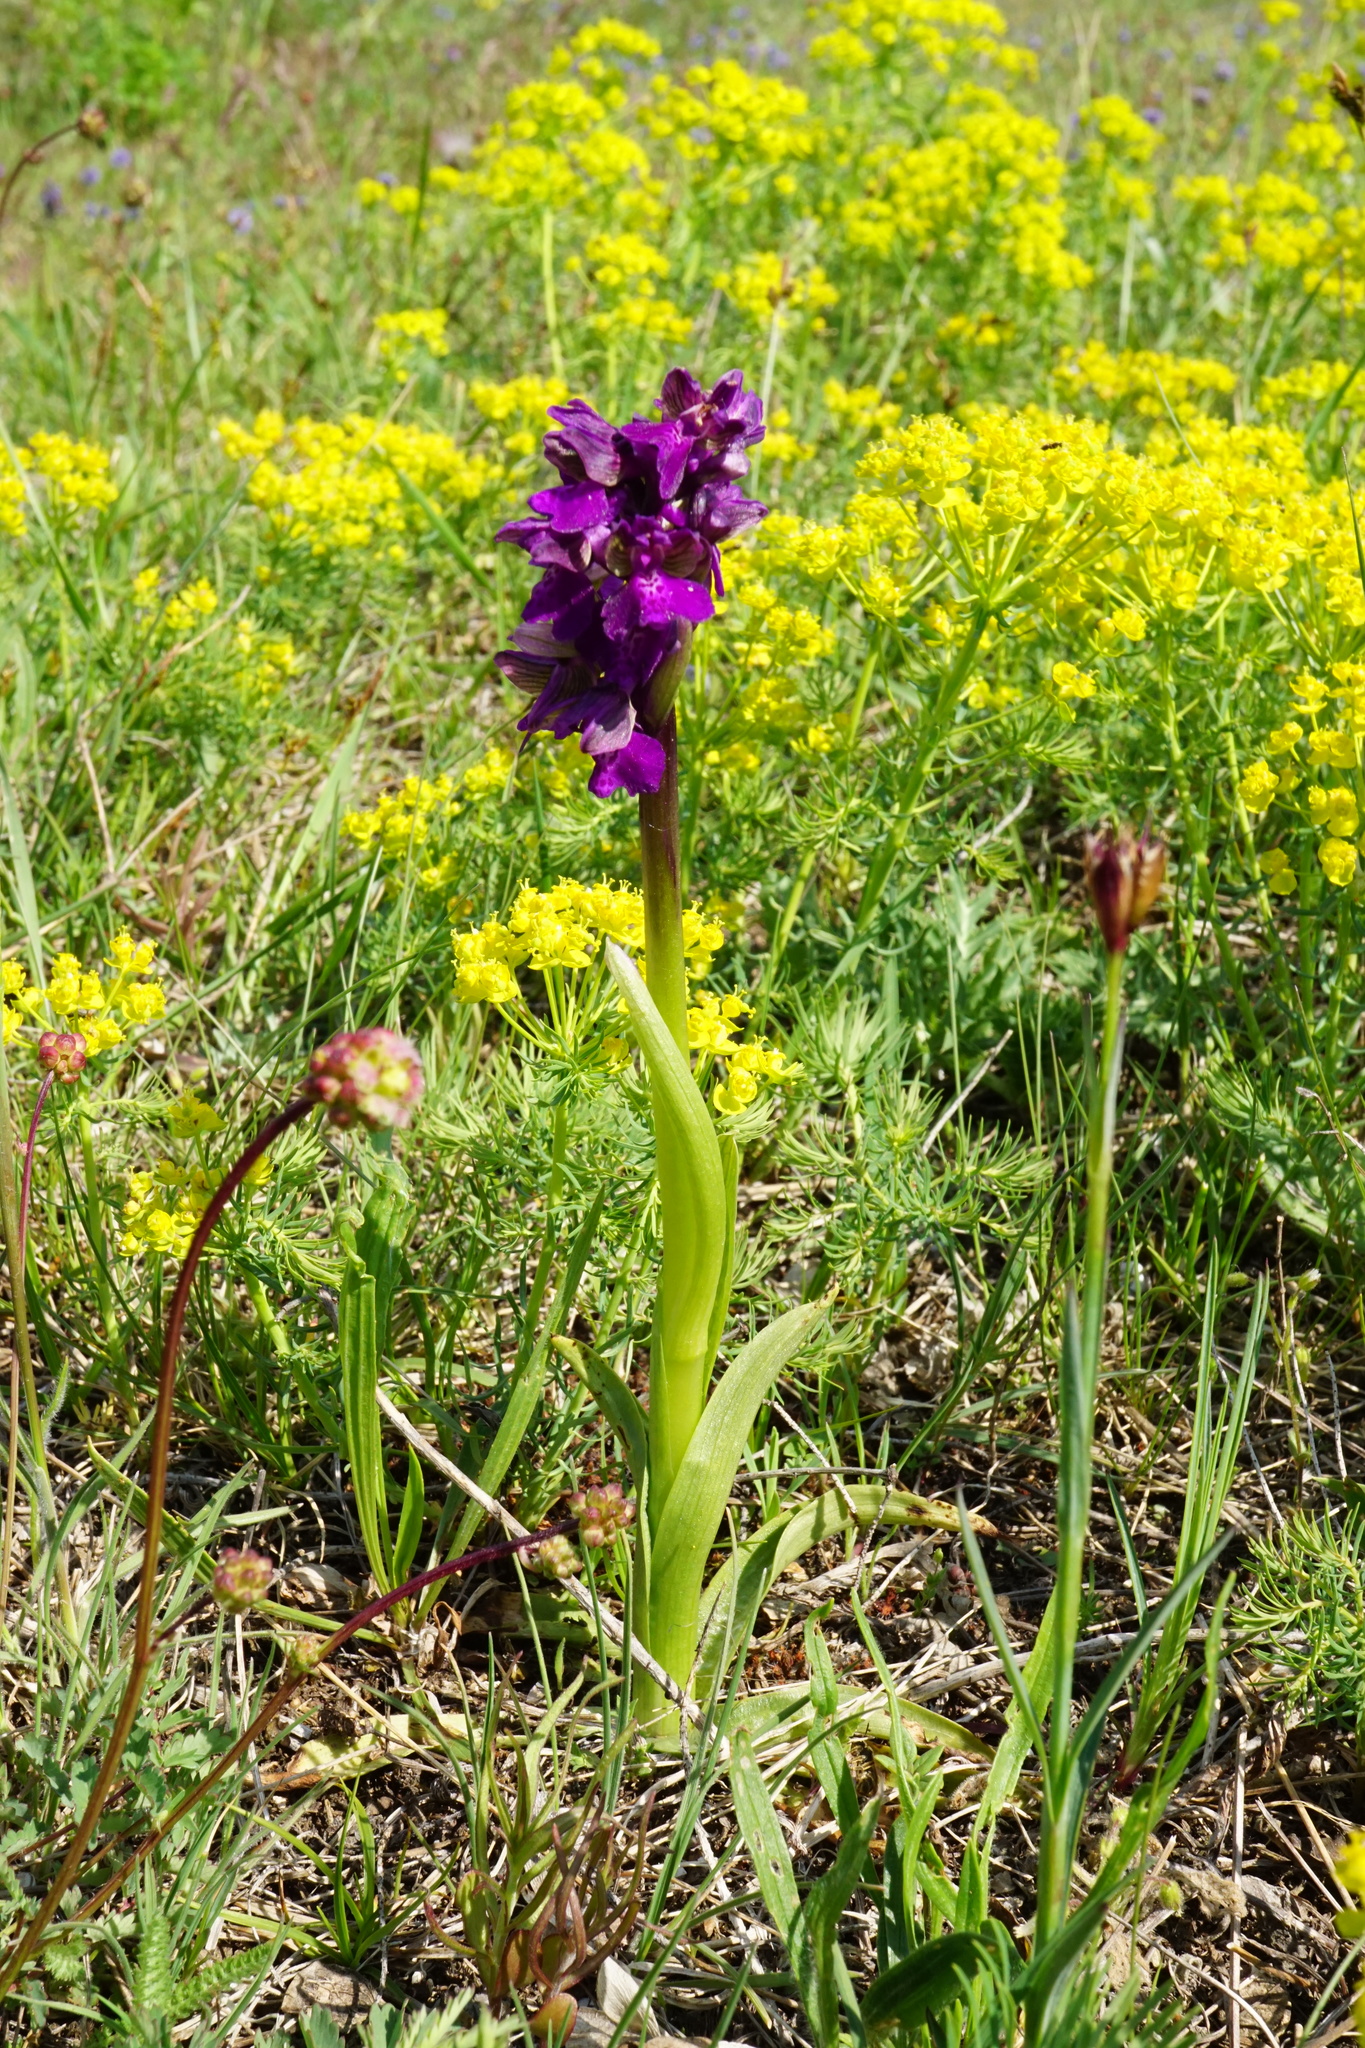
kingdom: Plantae
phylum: Tracheophyta
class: Liliopsida
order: Asparagales
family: Orchidaceae
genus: Anacamptis
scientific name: Anacamptis morio
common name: Green-winged orchid
